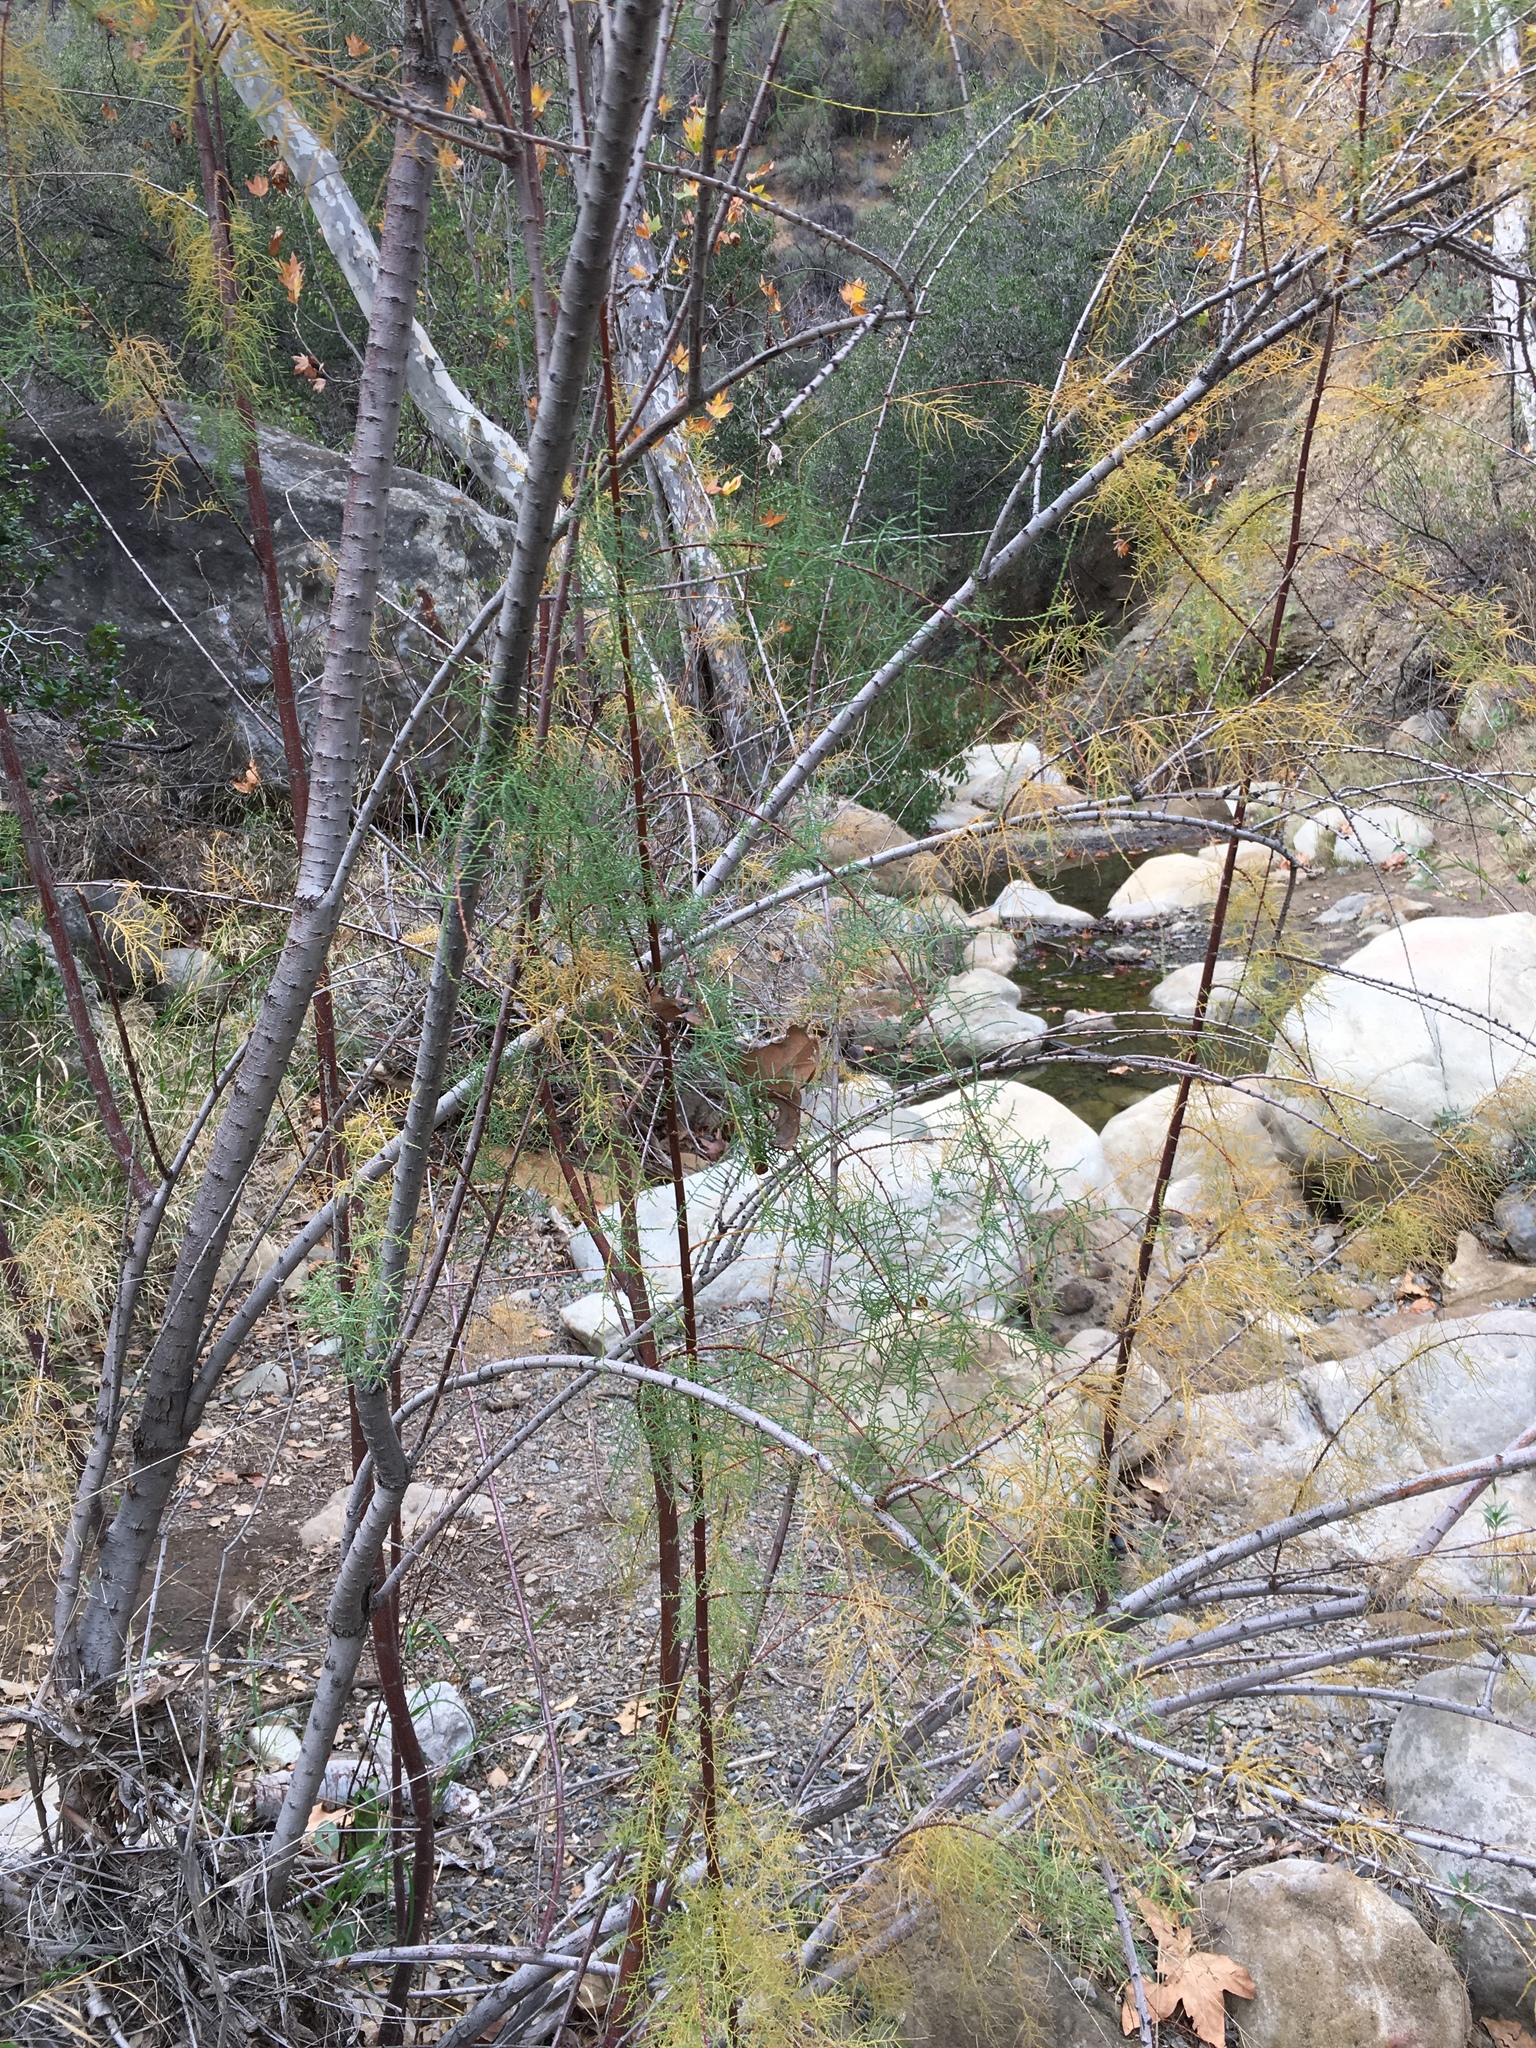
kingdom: Plantae
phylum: Tracheophyta
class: Magnoliopsida
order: Caryophyllales
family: Tamaricaceae
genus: Tamarix
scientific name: Tamarix
